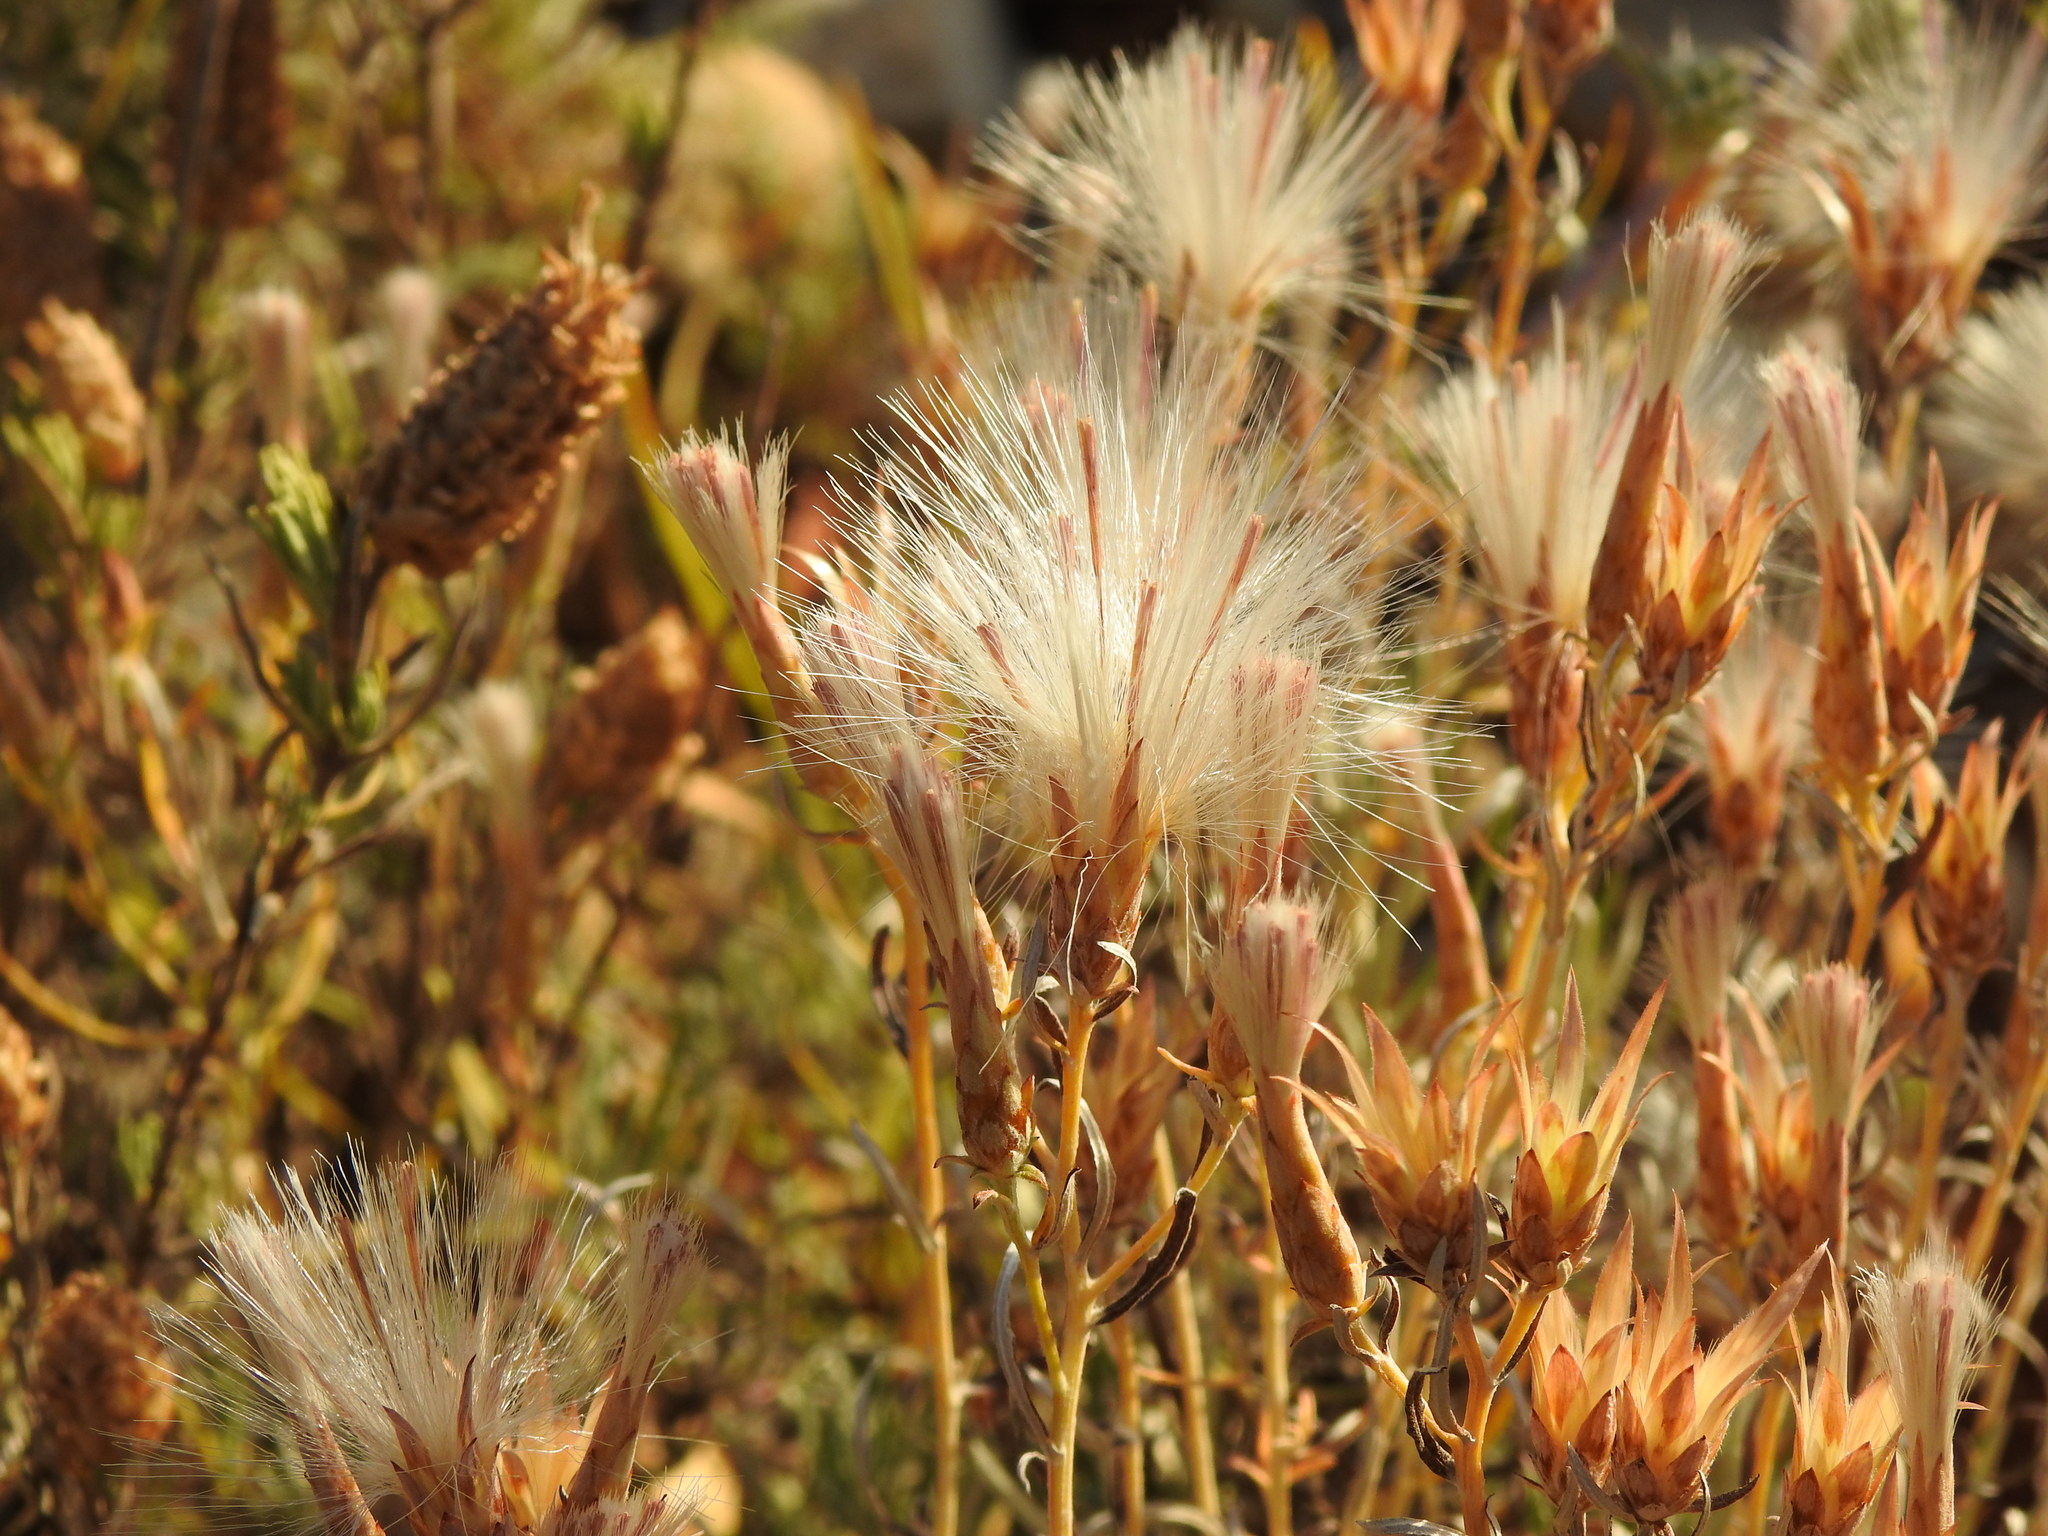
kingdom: Plantae
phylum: Tracheophyta
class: Magnoliopsida
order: Asterales
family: Asteraceae
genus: Staehelina
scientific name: Staehelina dubia
